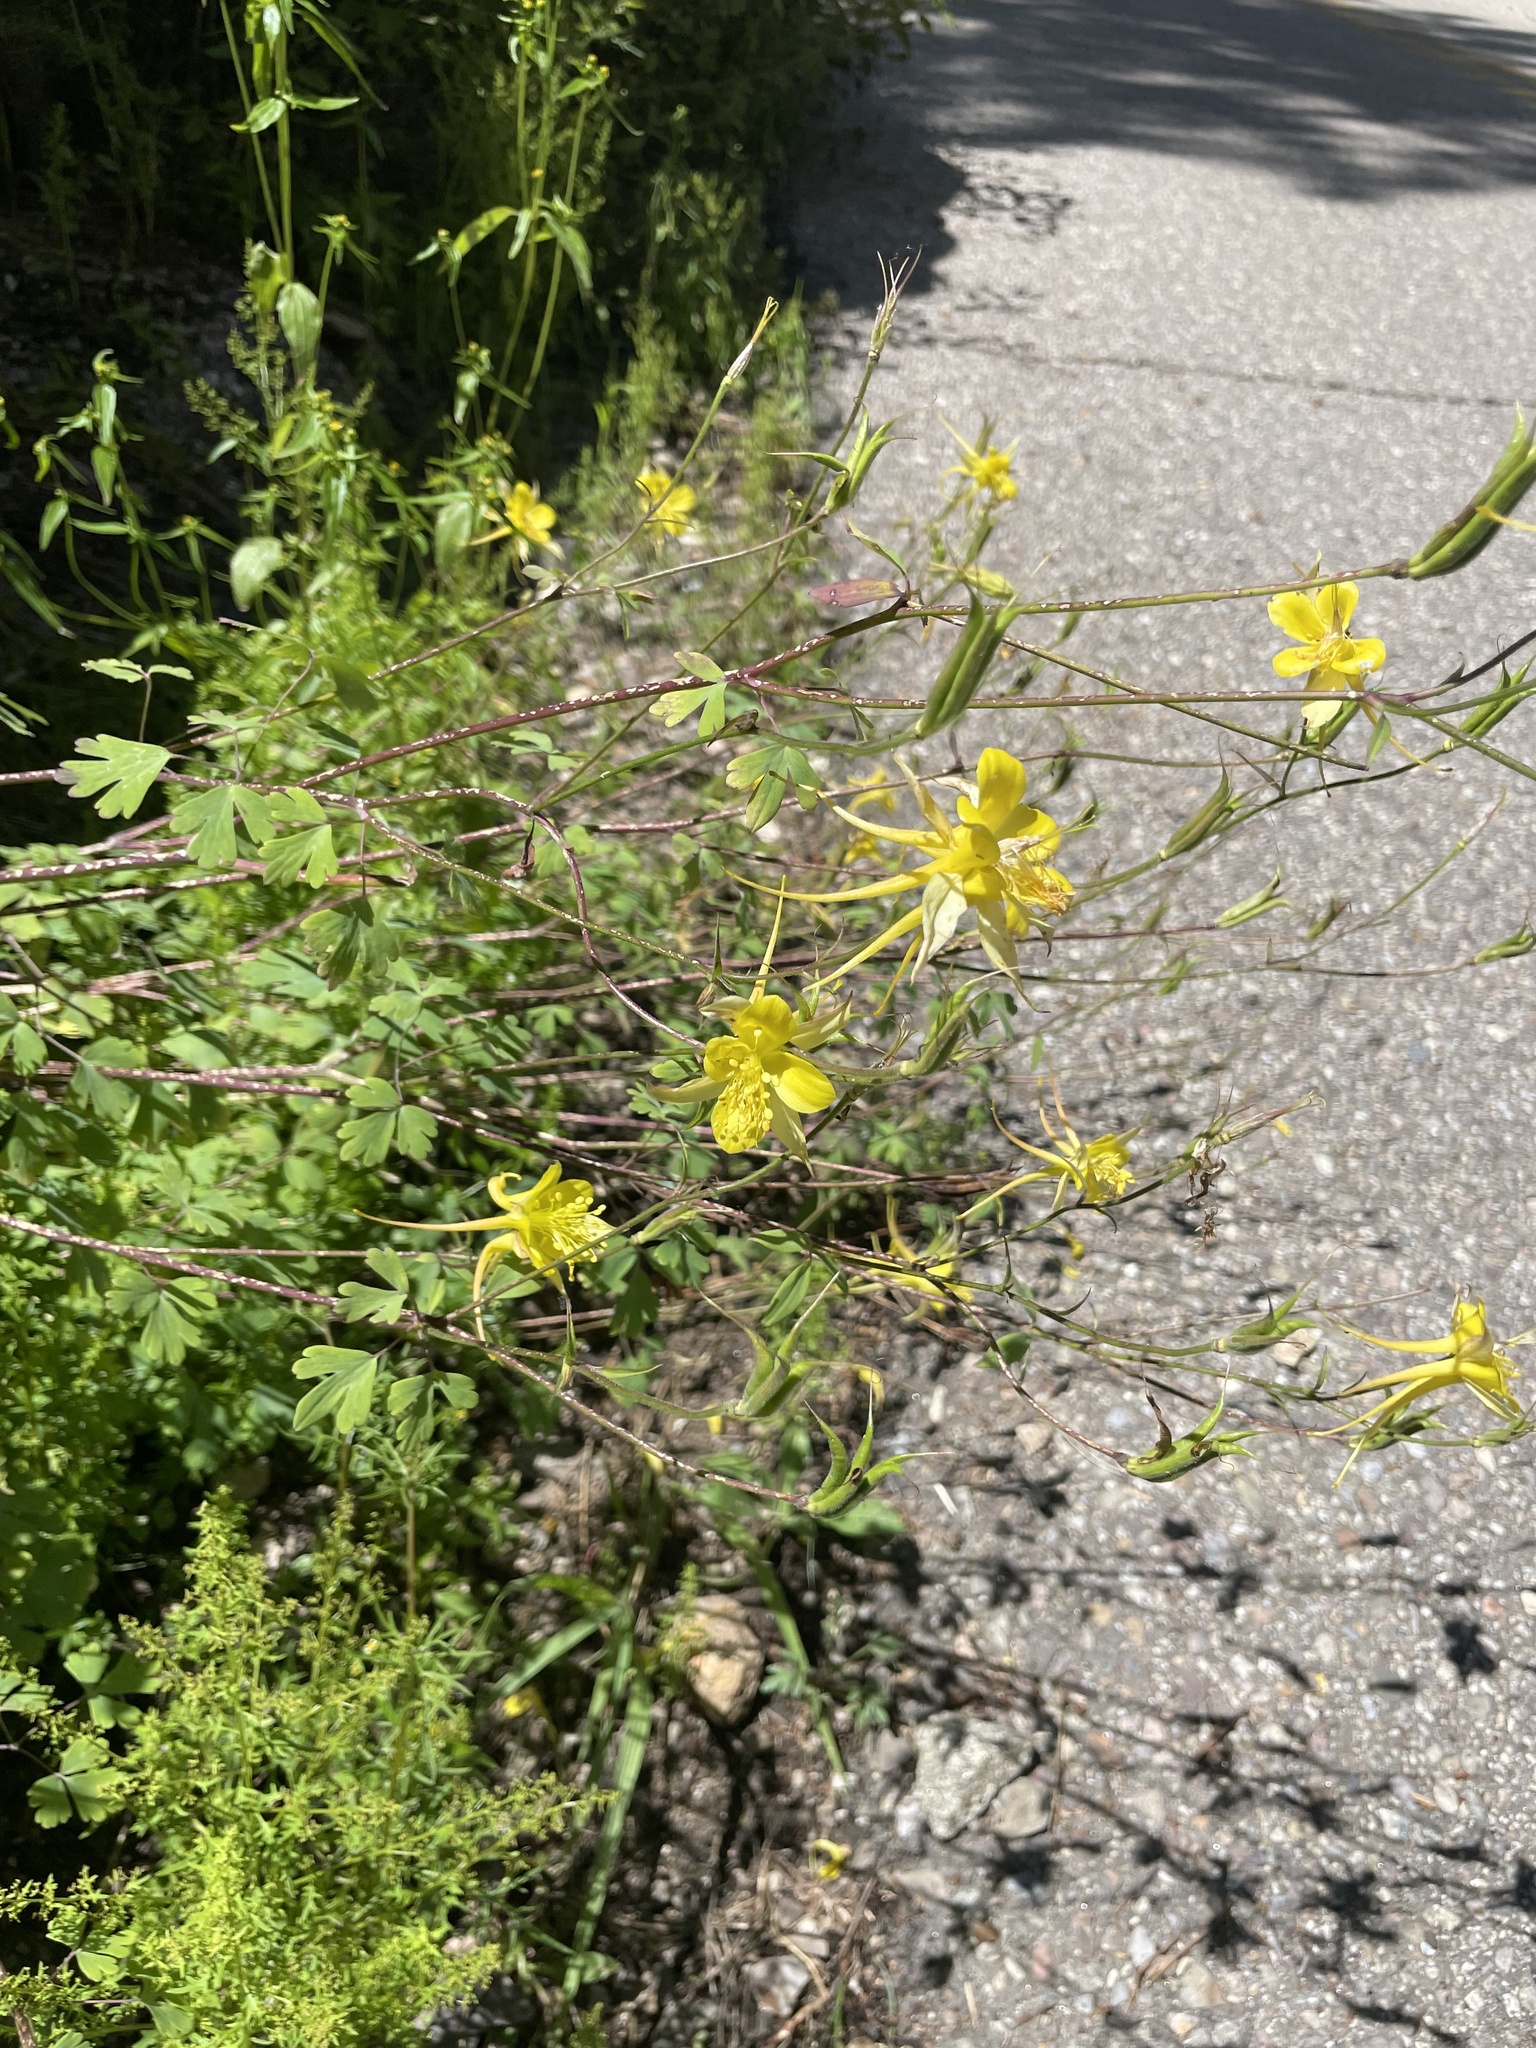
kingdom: Plantae
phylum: Tracheophyta
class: Magnoliopsida
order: Ranunculales
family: Ranunculaceae
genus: Aquilegia
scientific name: Aquilegia chrysantha
